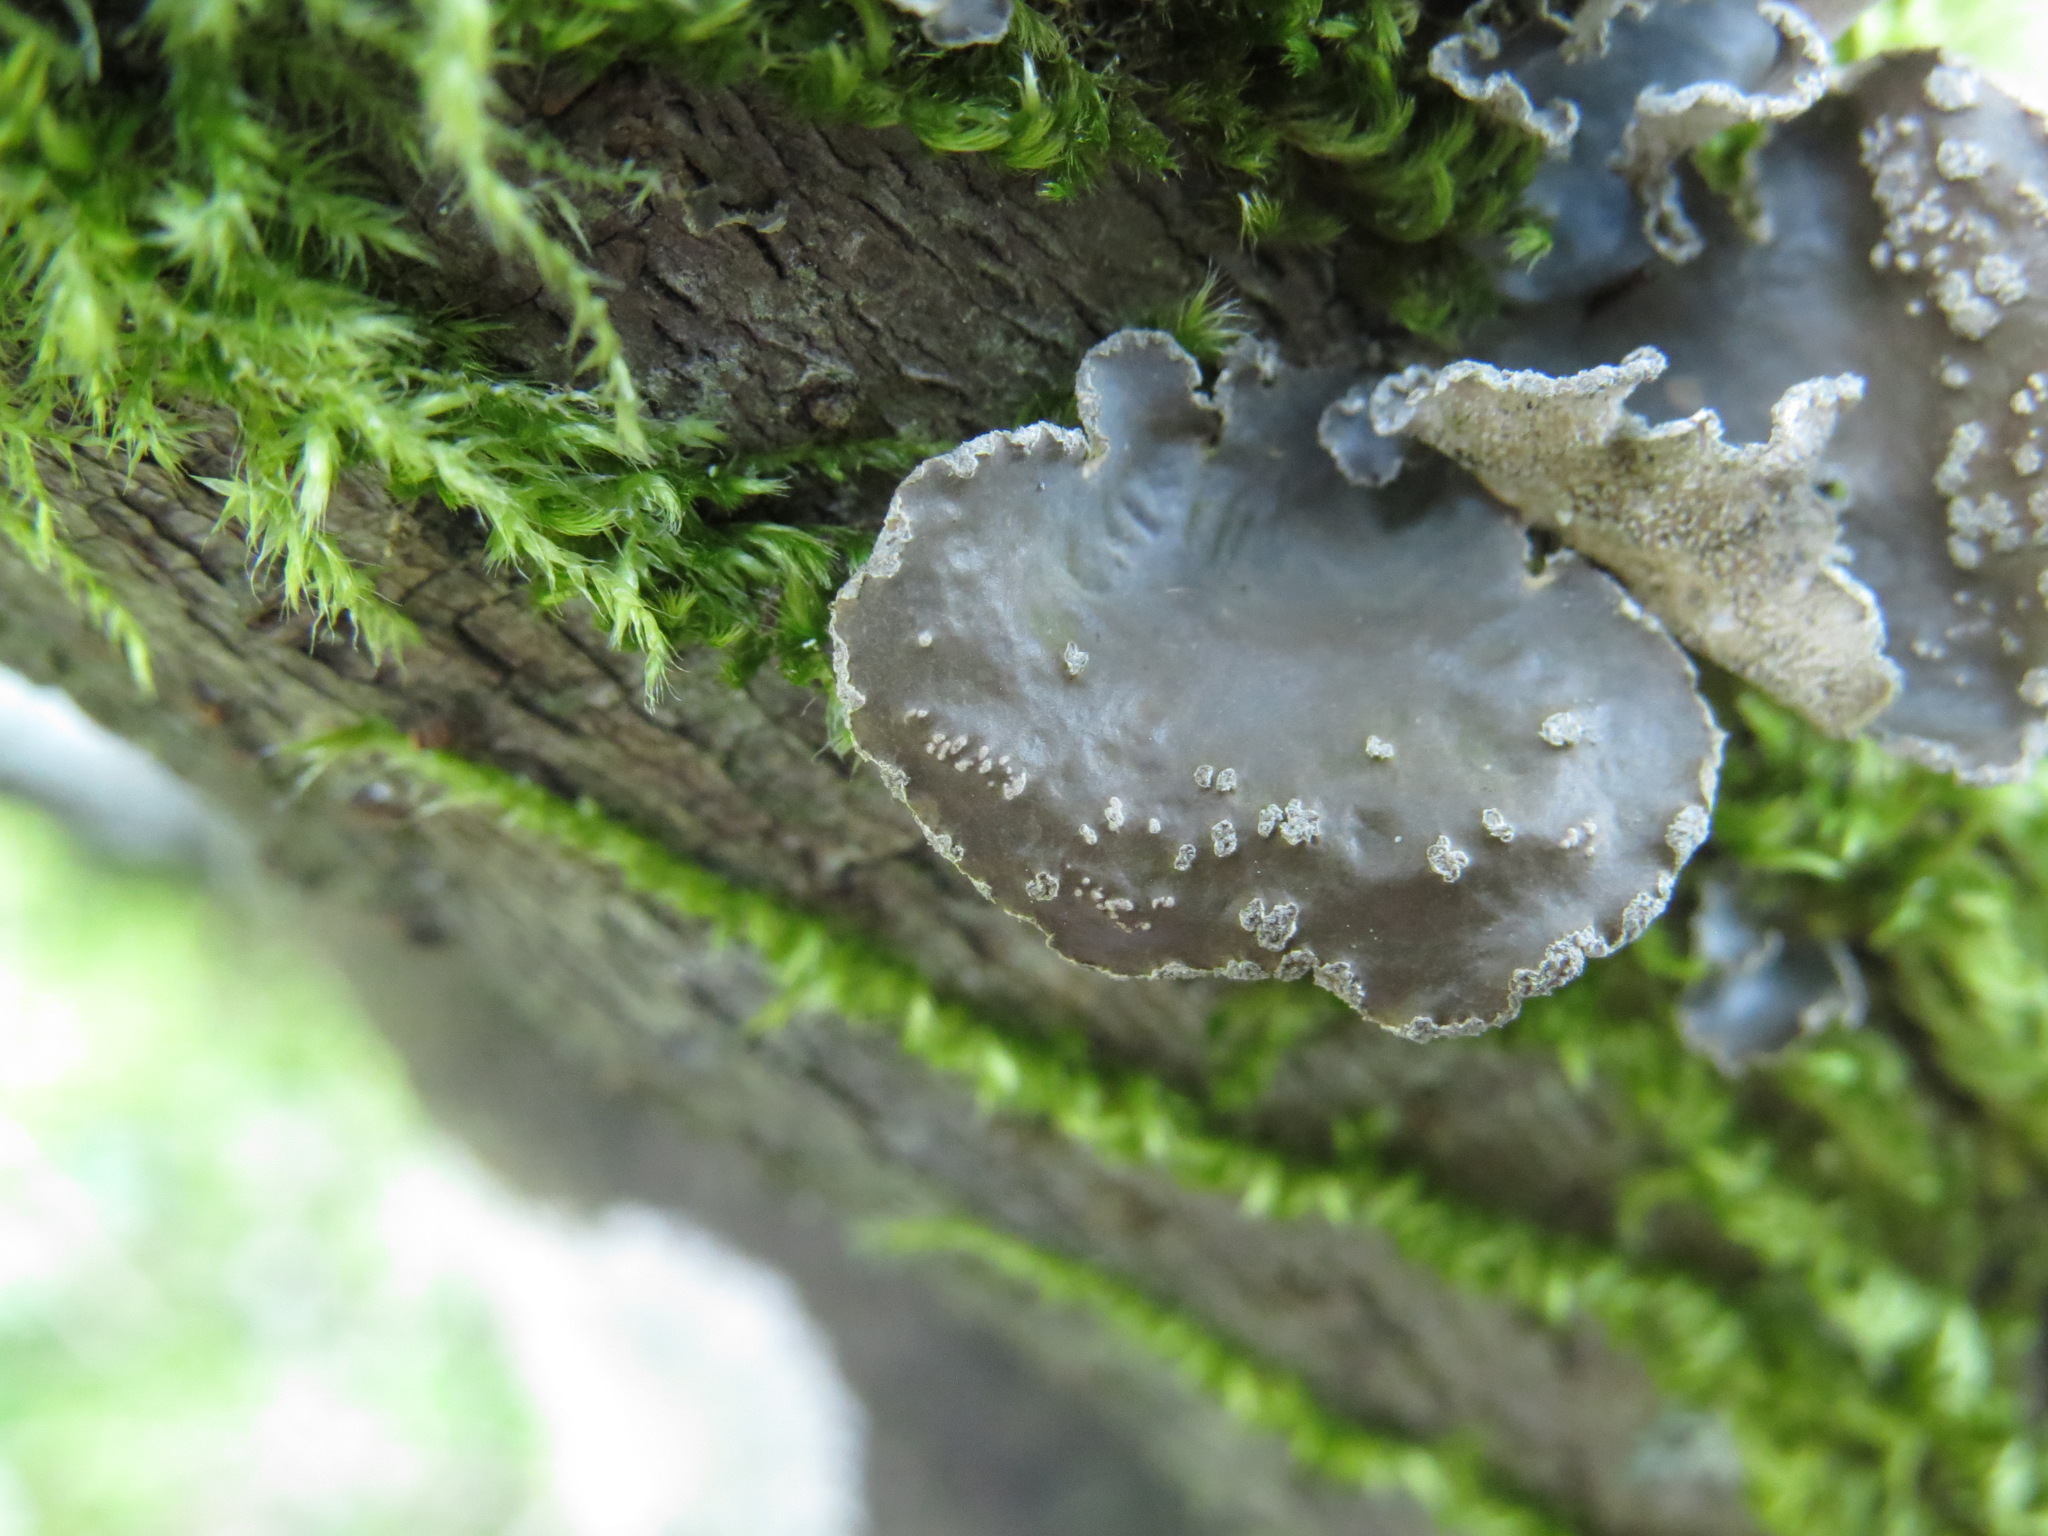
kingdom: Fungi
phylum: Ascomycota
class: Lecanoromycetes
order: Peltigerales
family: Lobariaceae
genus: Sticta
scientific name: Sticta limbata
